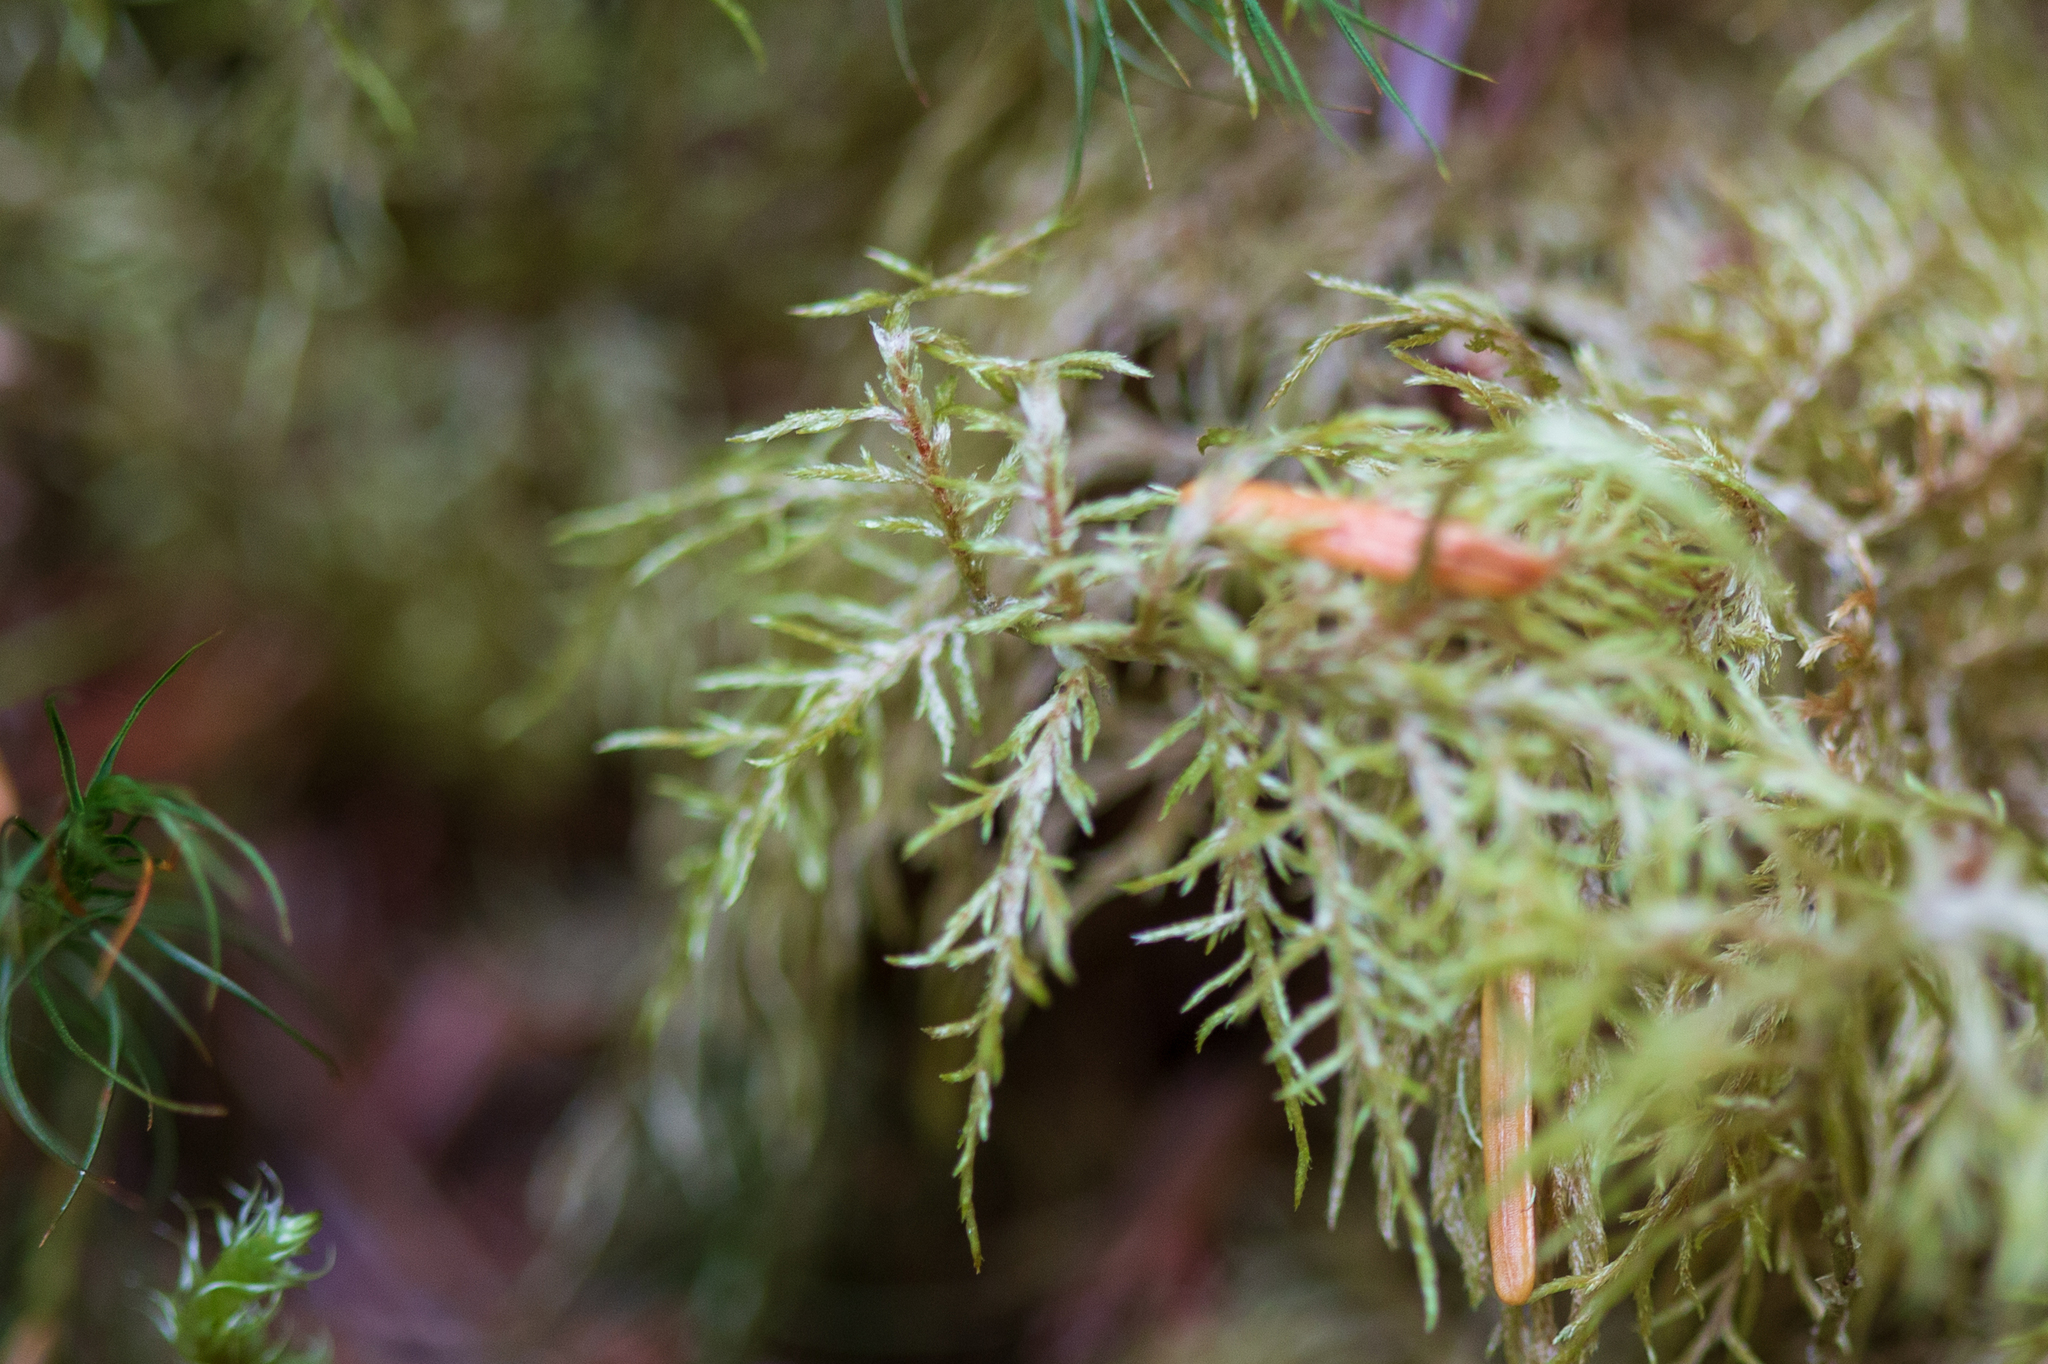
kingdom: Plantae
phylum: Bryophyta
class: Bryopsida
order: Hypnales
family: Hylocomiaceae
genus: Hylocomium
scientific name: Hylocomium splendens
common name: Stairstep moss
